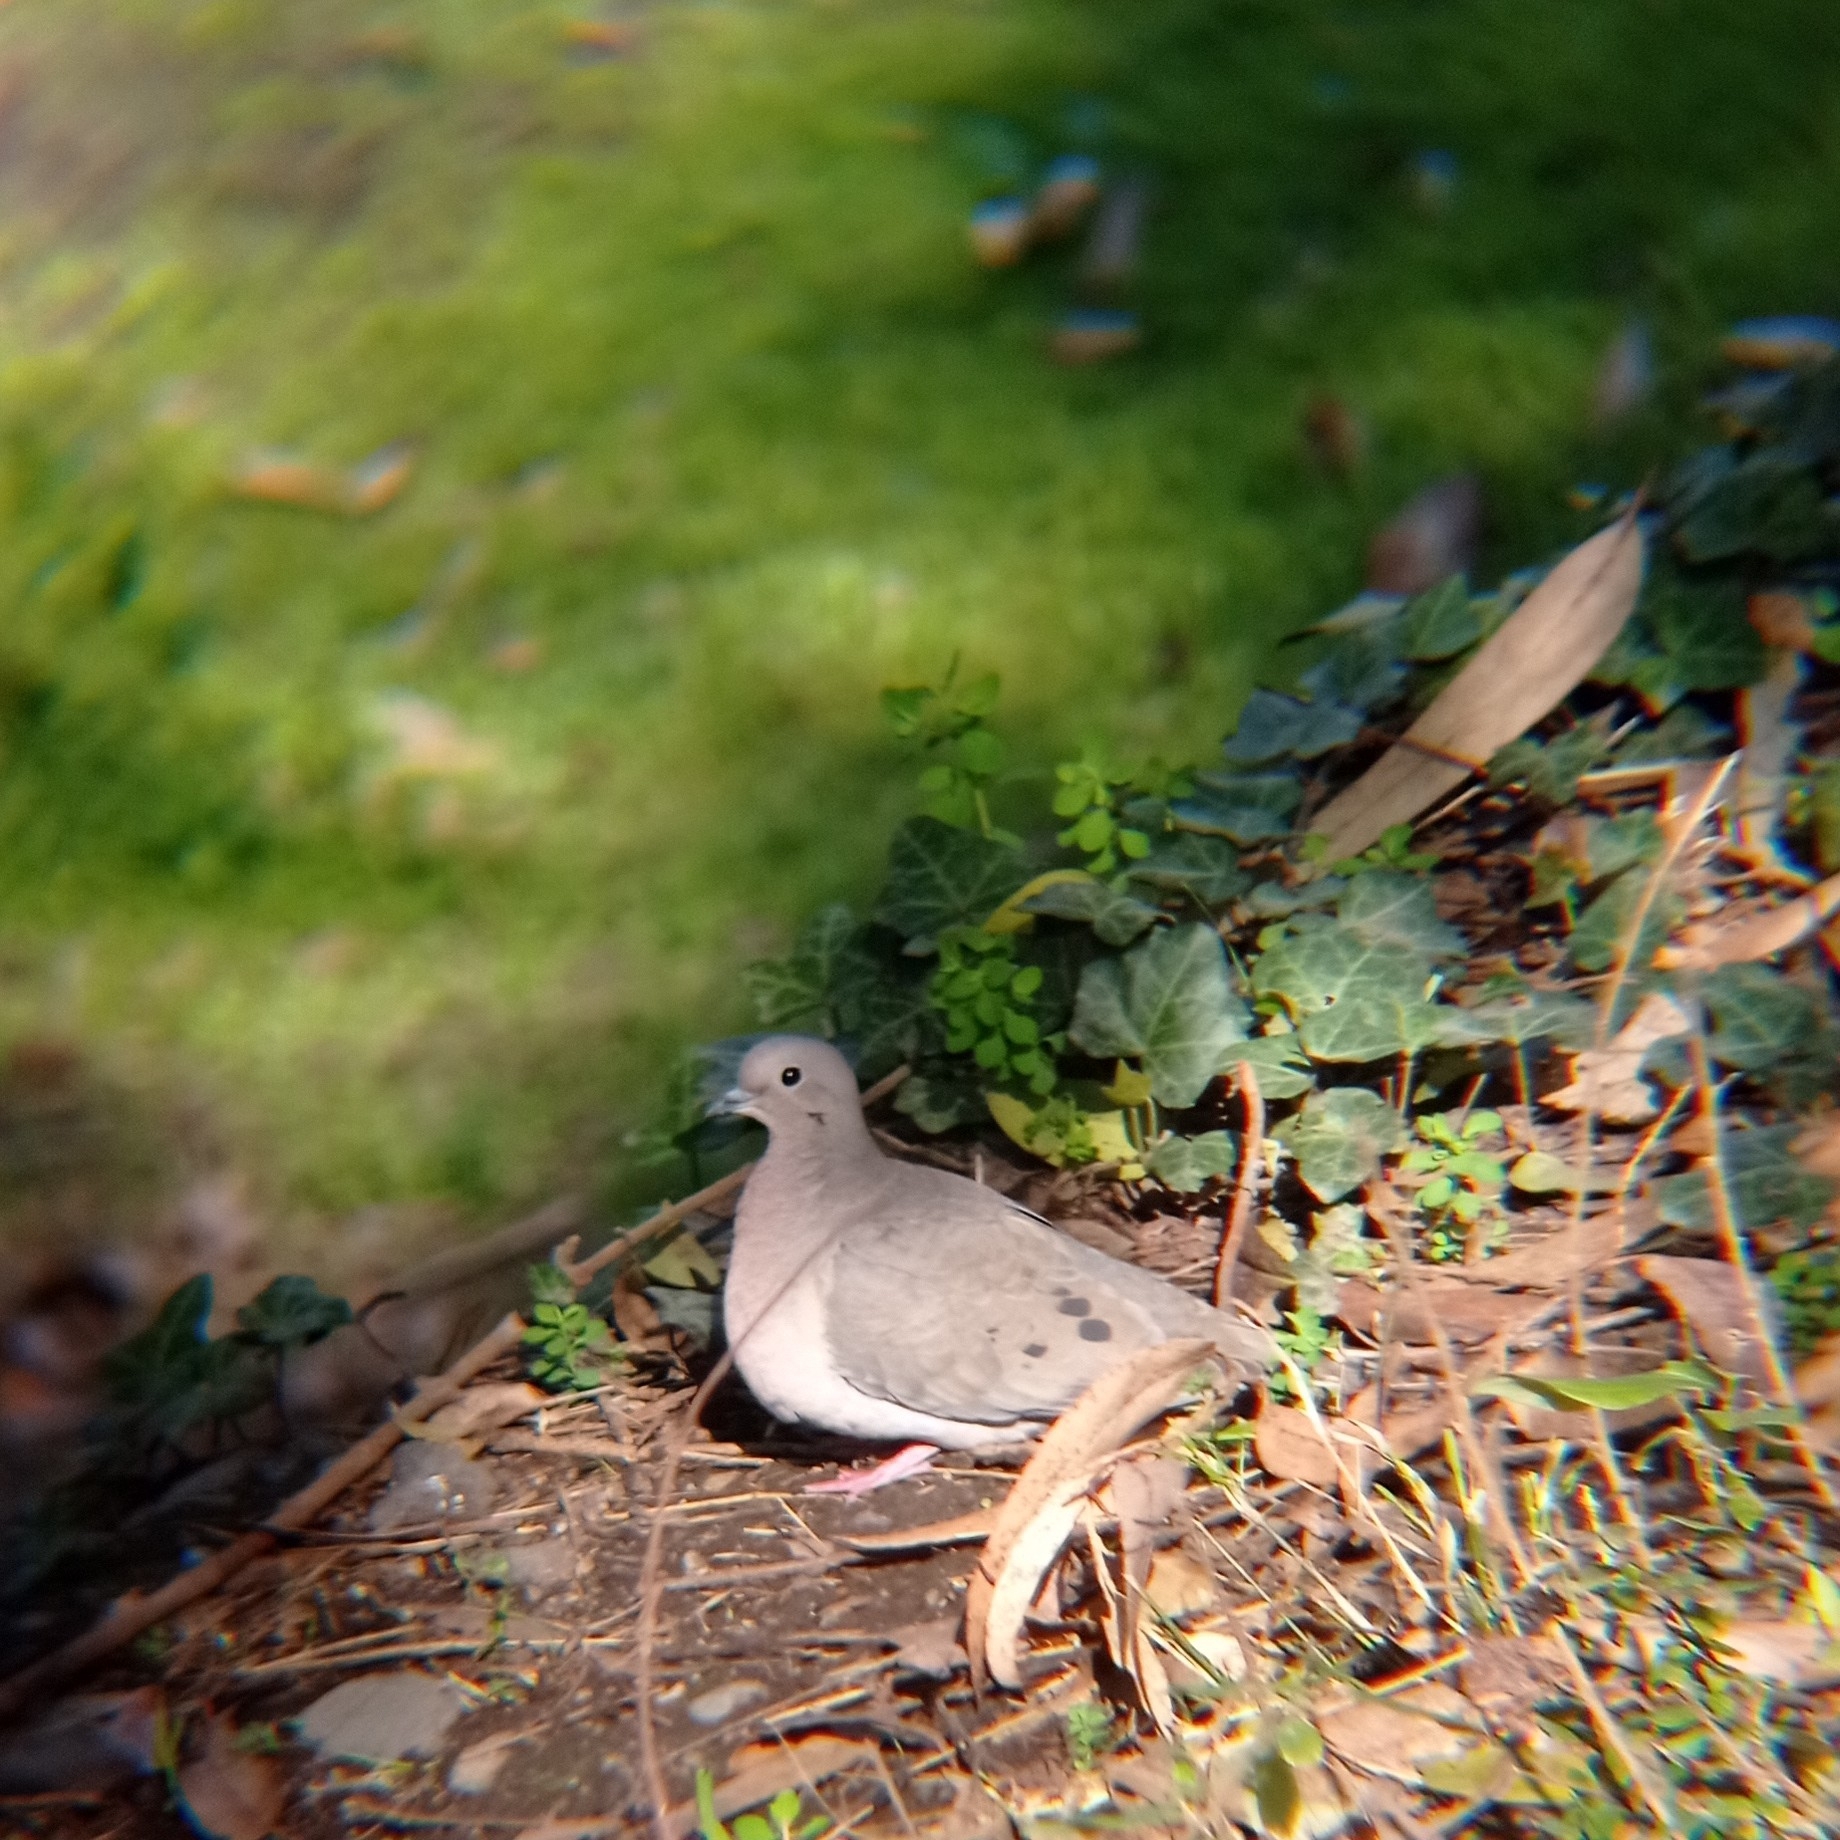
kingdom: Animalia
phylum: Chordata
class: Aves
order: Columbiformes
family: Columbidae
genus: Zenaida
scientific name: Zenaida auriculata
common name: Eared dove
